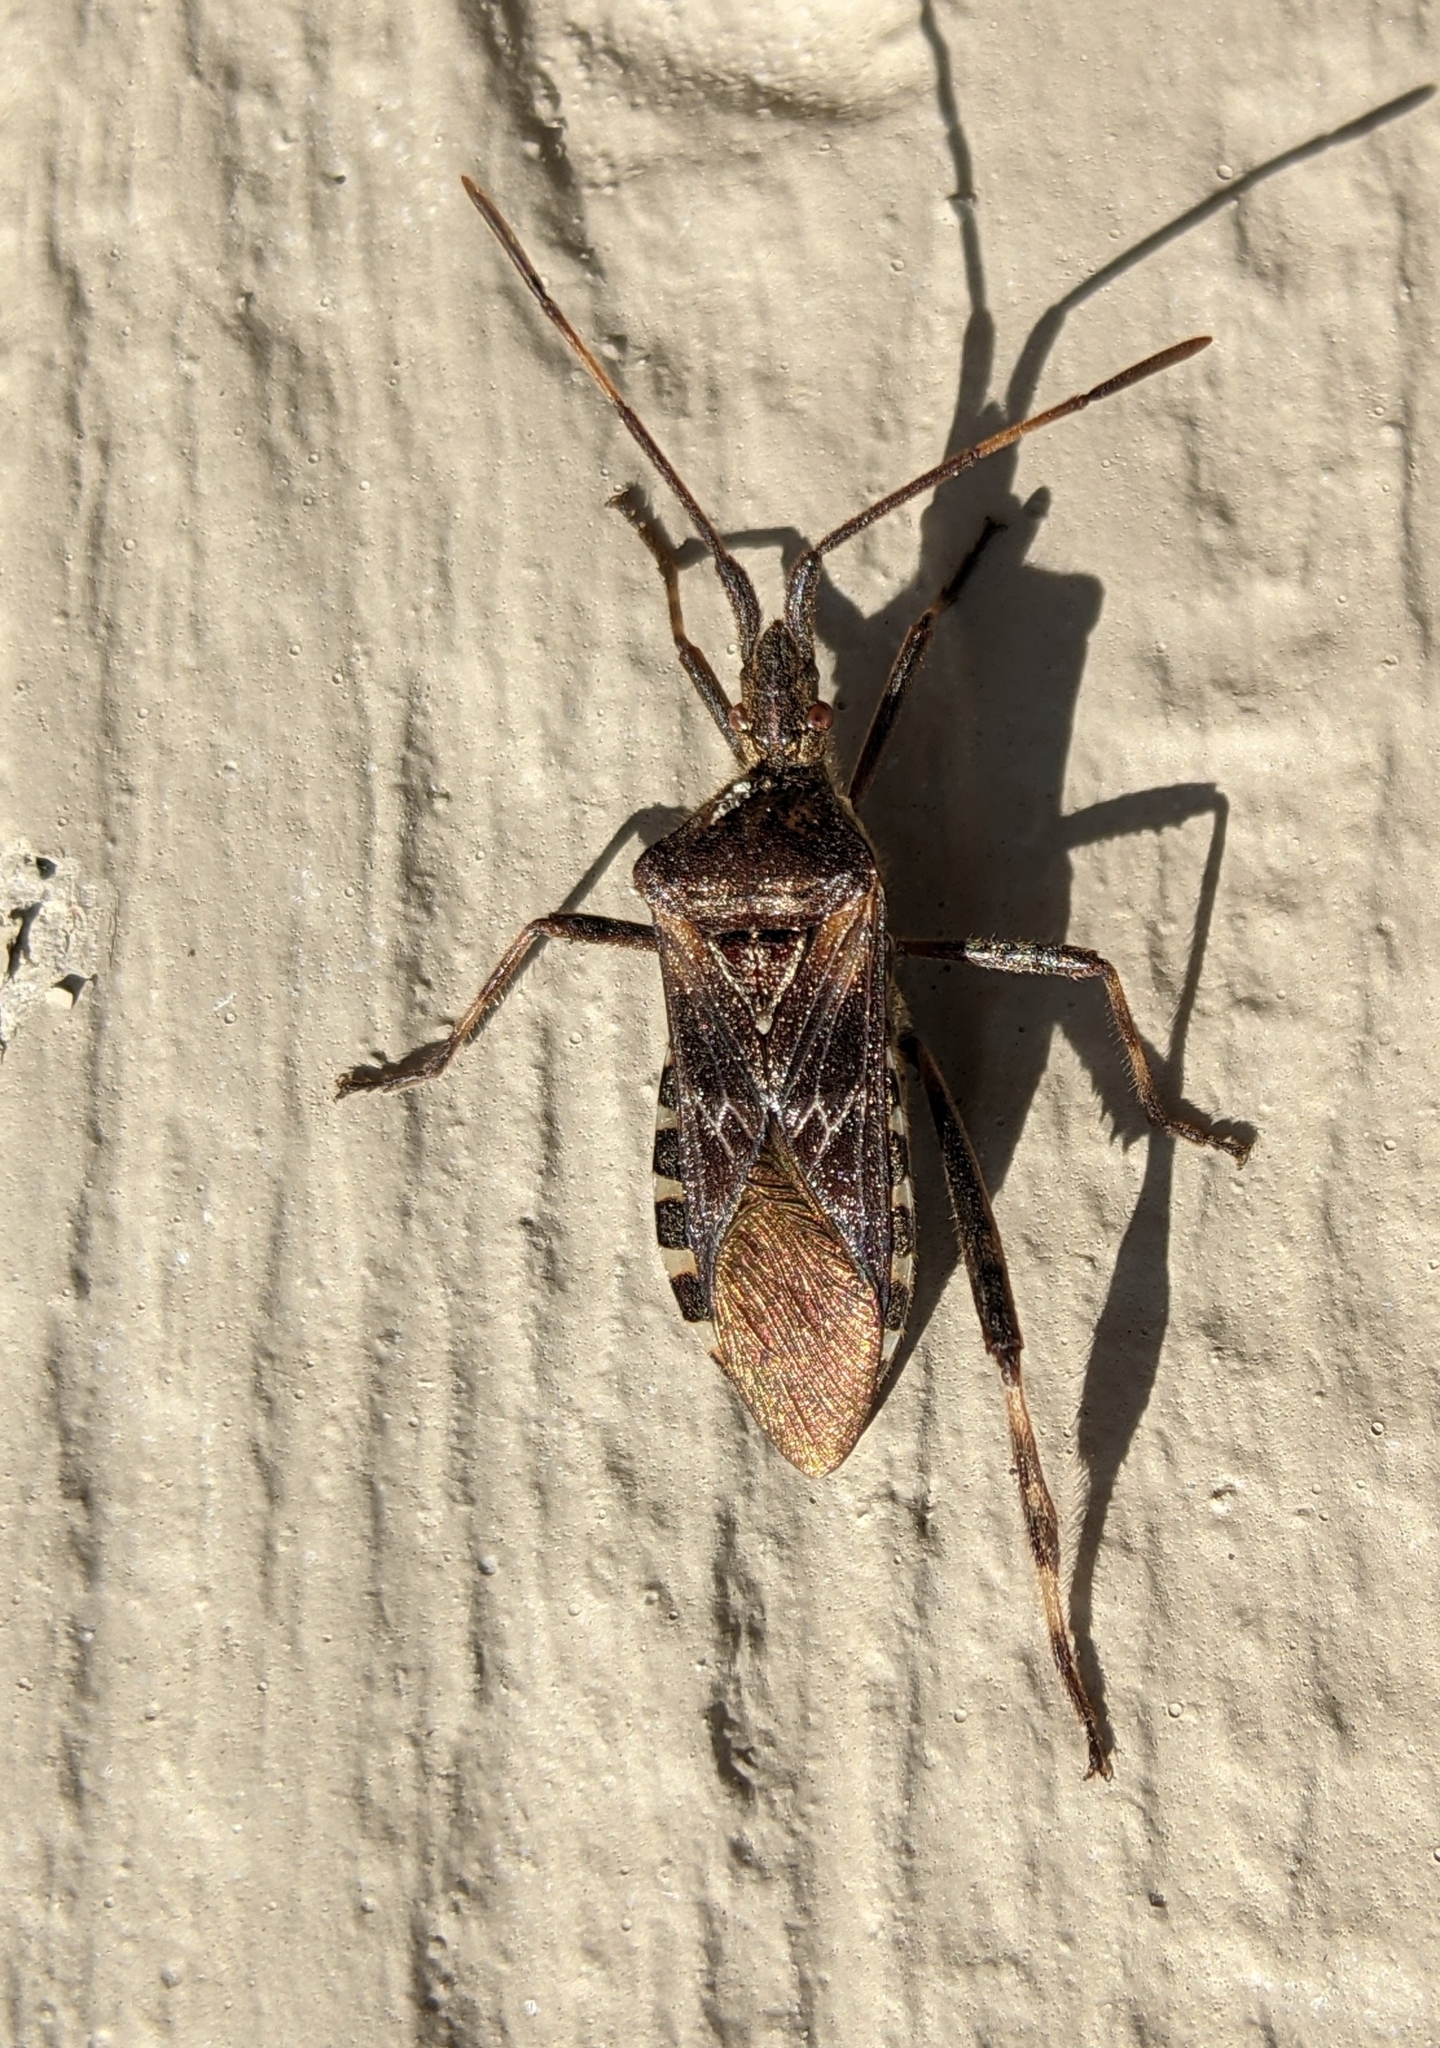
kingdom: Animalia
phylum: Arthropoda
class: Insecta
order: Hemiptera
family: Coreidae
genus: Leptoglossus
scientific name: Leptoglossus occidentalis
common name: Western conifer-seed bug
